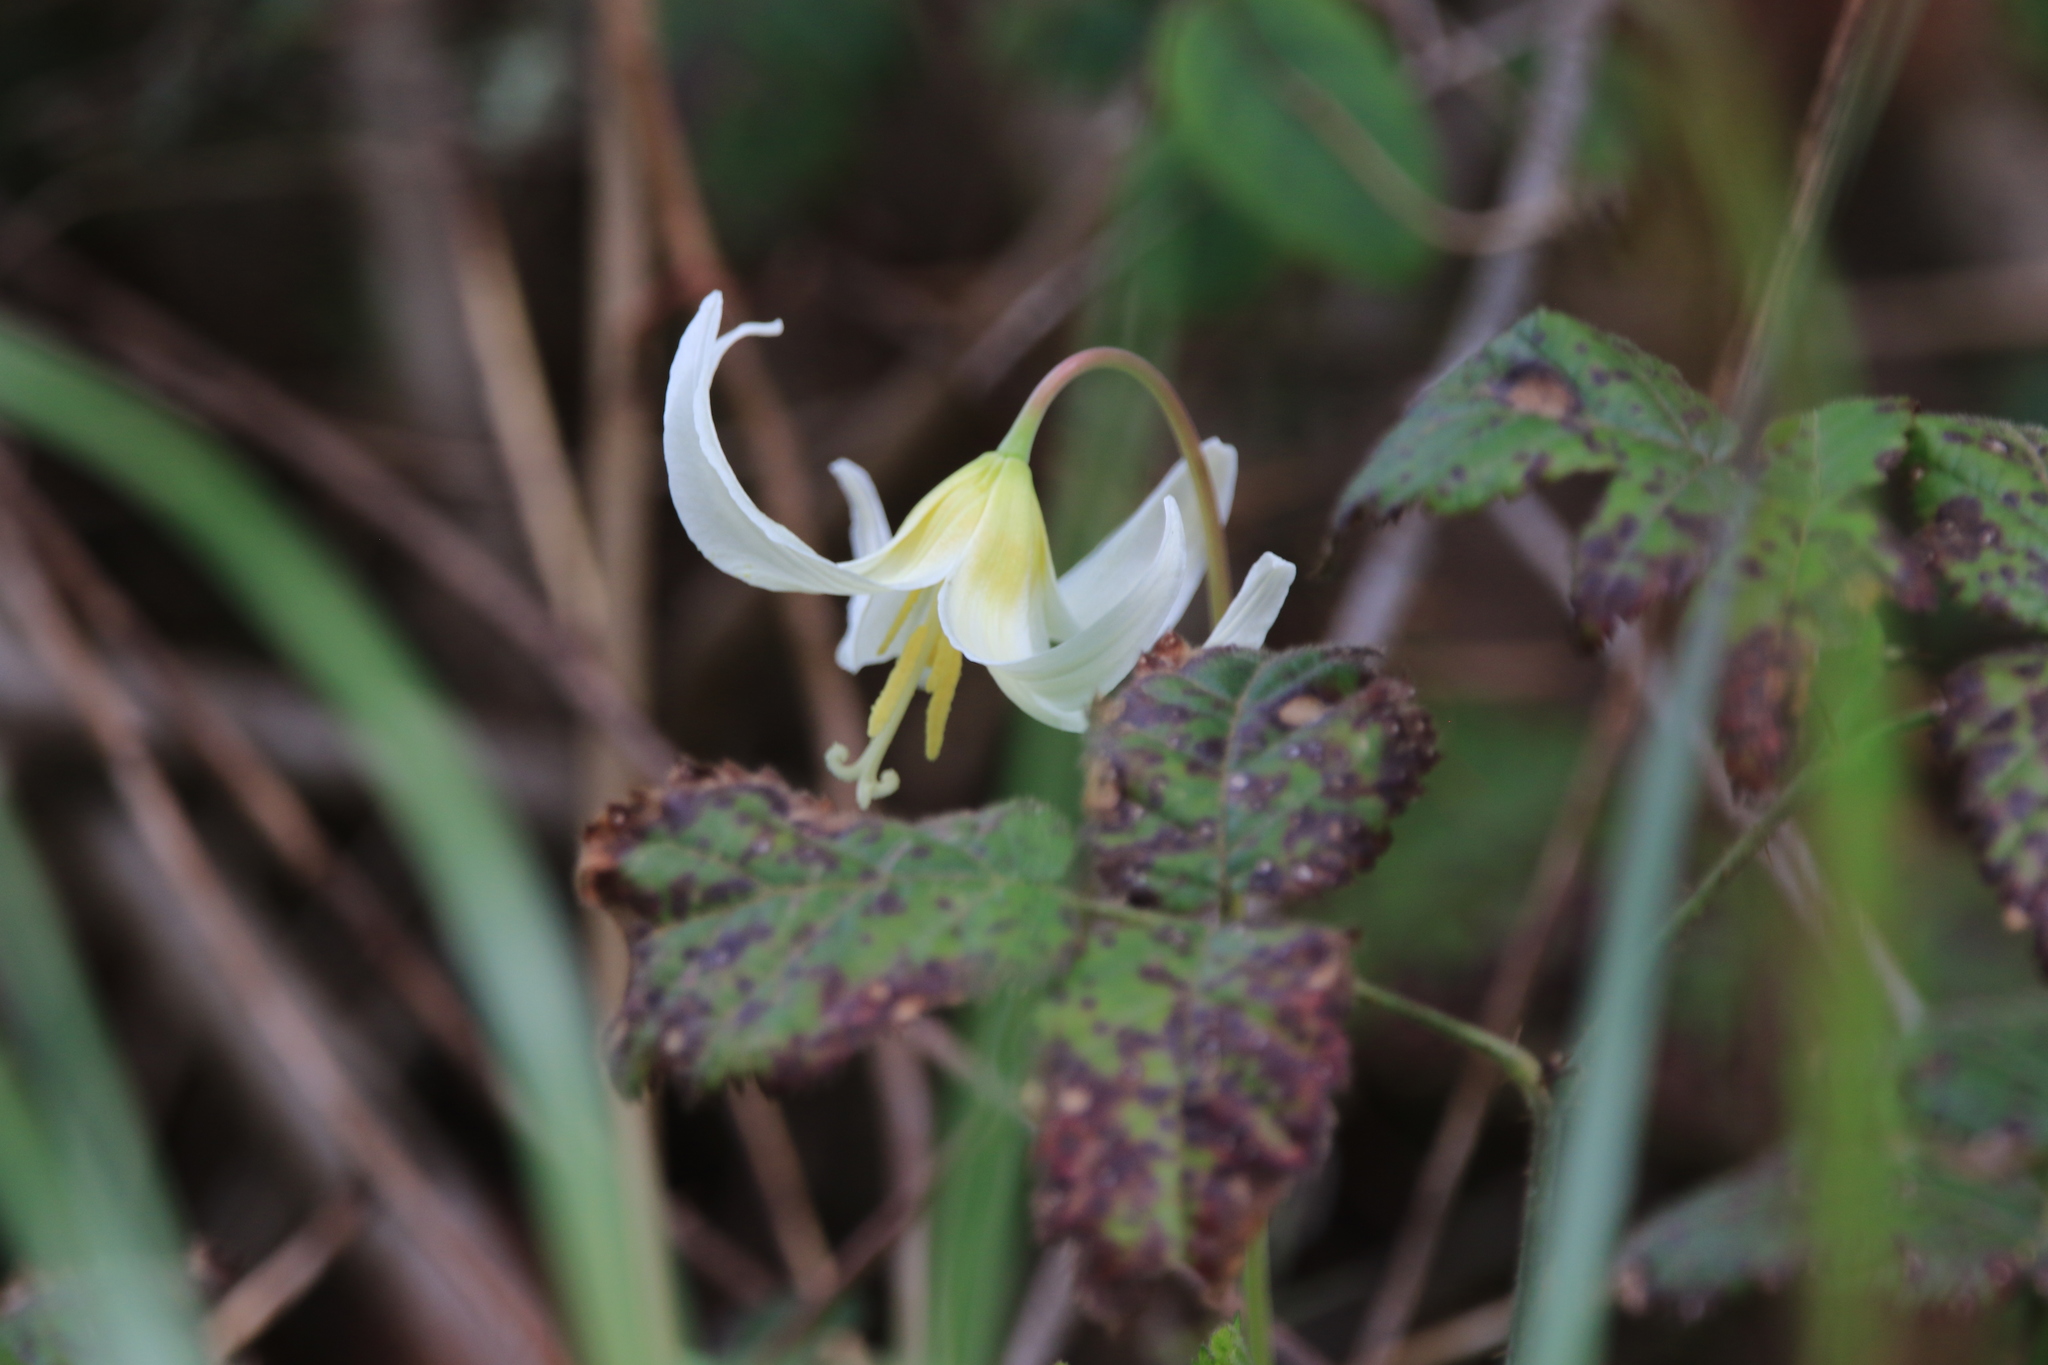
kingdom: Plantae
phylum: Tracheophyta
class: Liliopsida
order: Liliales
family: Liliaceae
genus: Erythronium
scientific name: Erythronium oregonum
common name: Giant adder's-tongue
